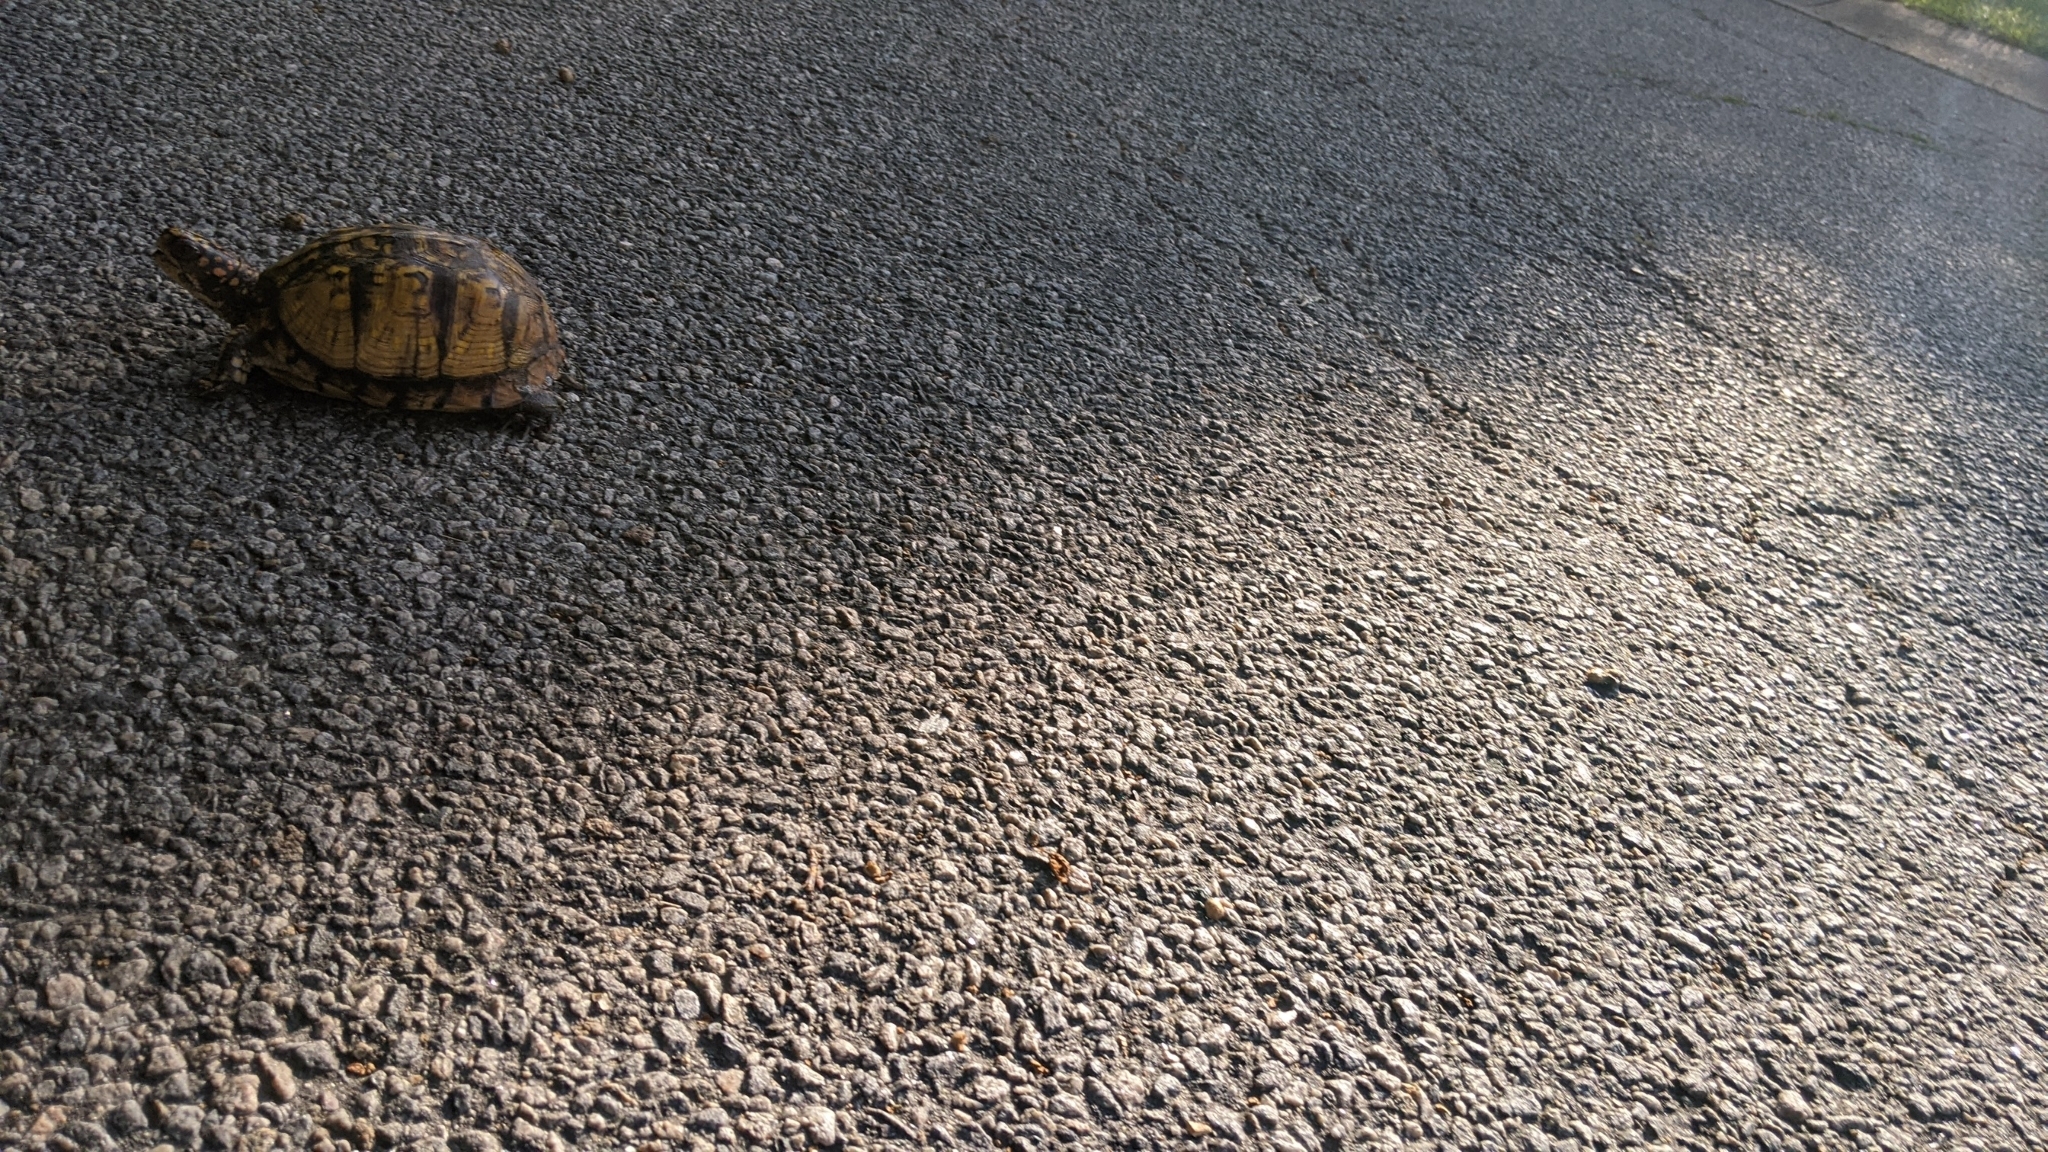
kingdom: Animalia
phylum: Chordata
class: Testudines
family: Emydidae
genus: Terrapene
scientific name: Terrapene carolina
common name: Common box turtle
